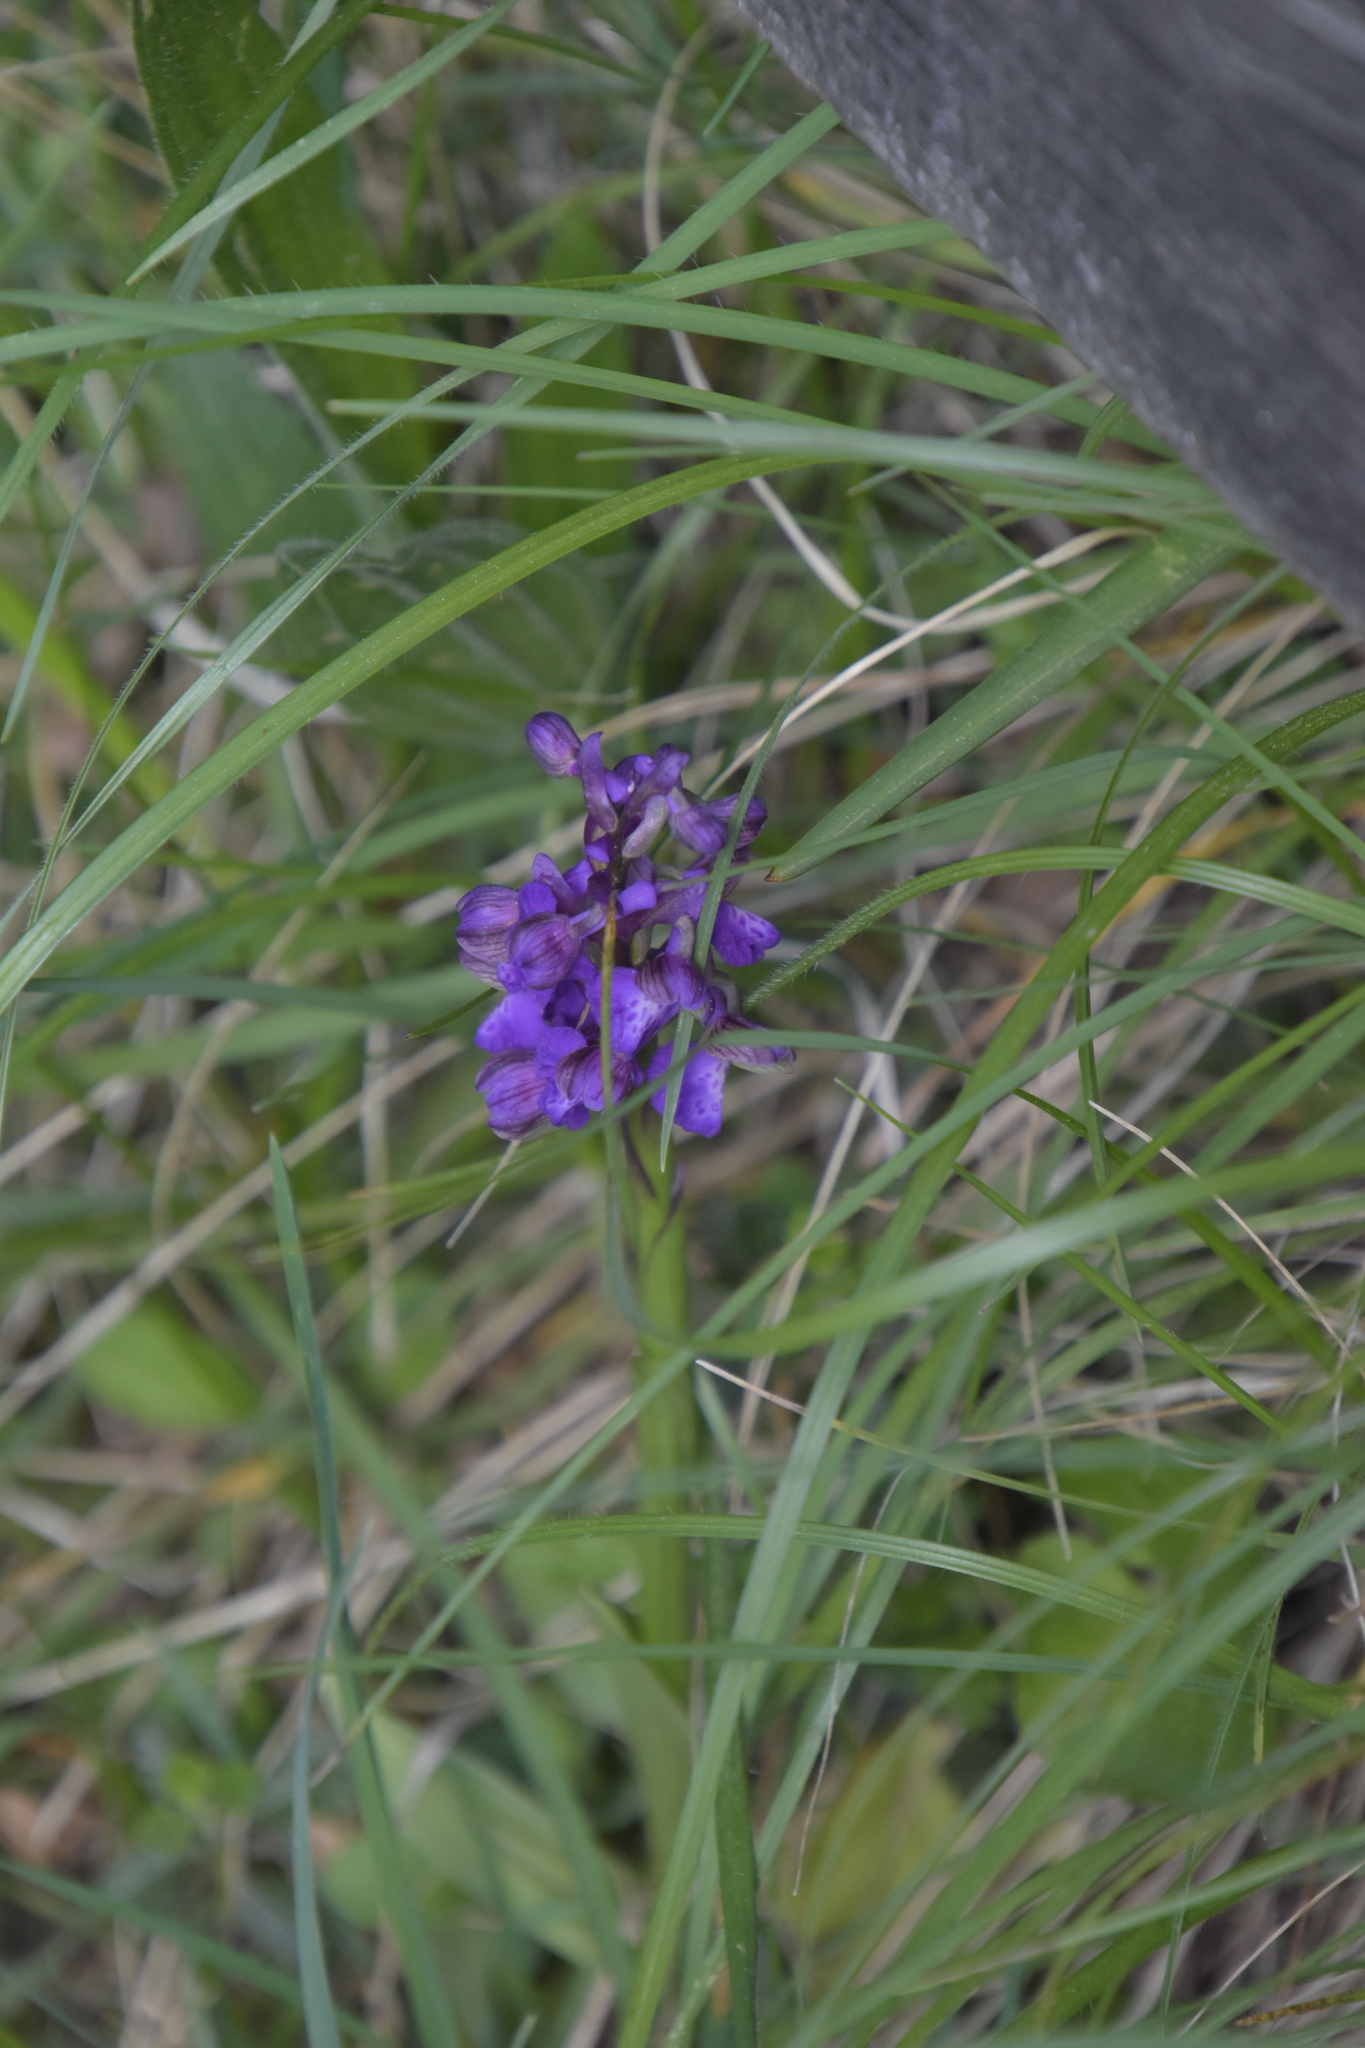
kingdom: Plantae
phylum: Tracheophyta
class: Liliopsida
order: Asparagales
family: Orchidaceae
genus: Anacamptis
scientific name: Anacamptis morio
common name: Green-winged orchid
